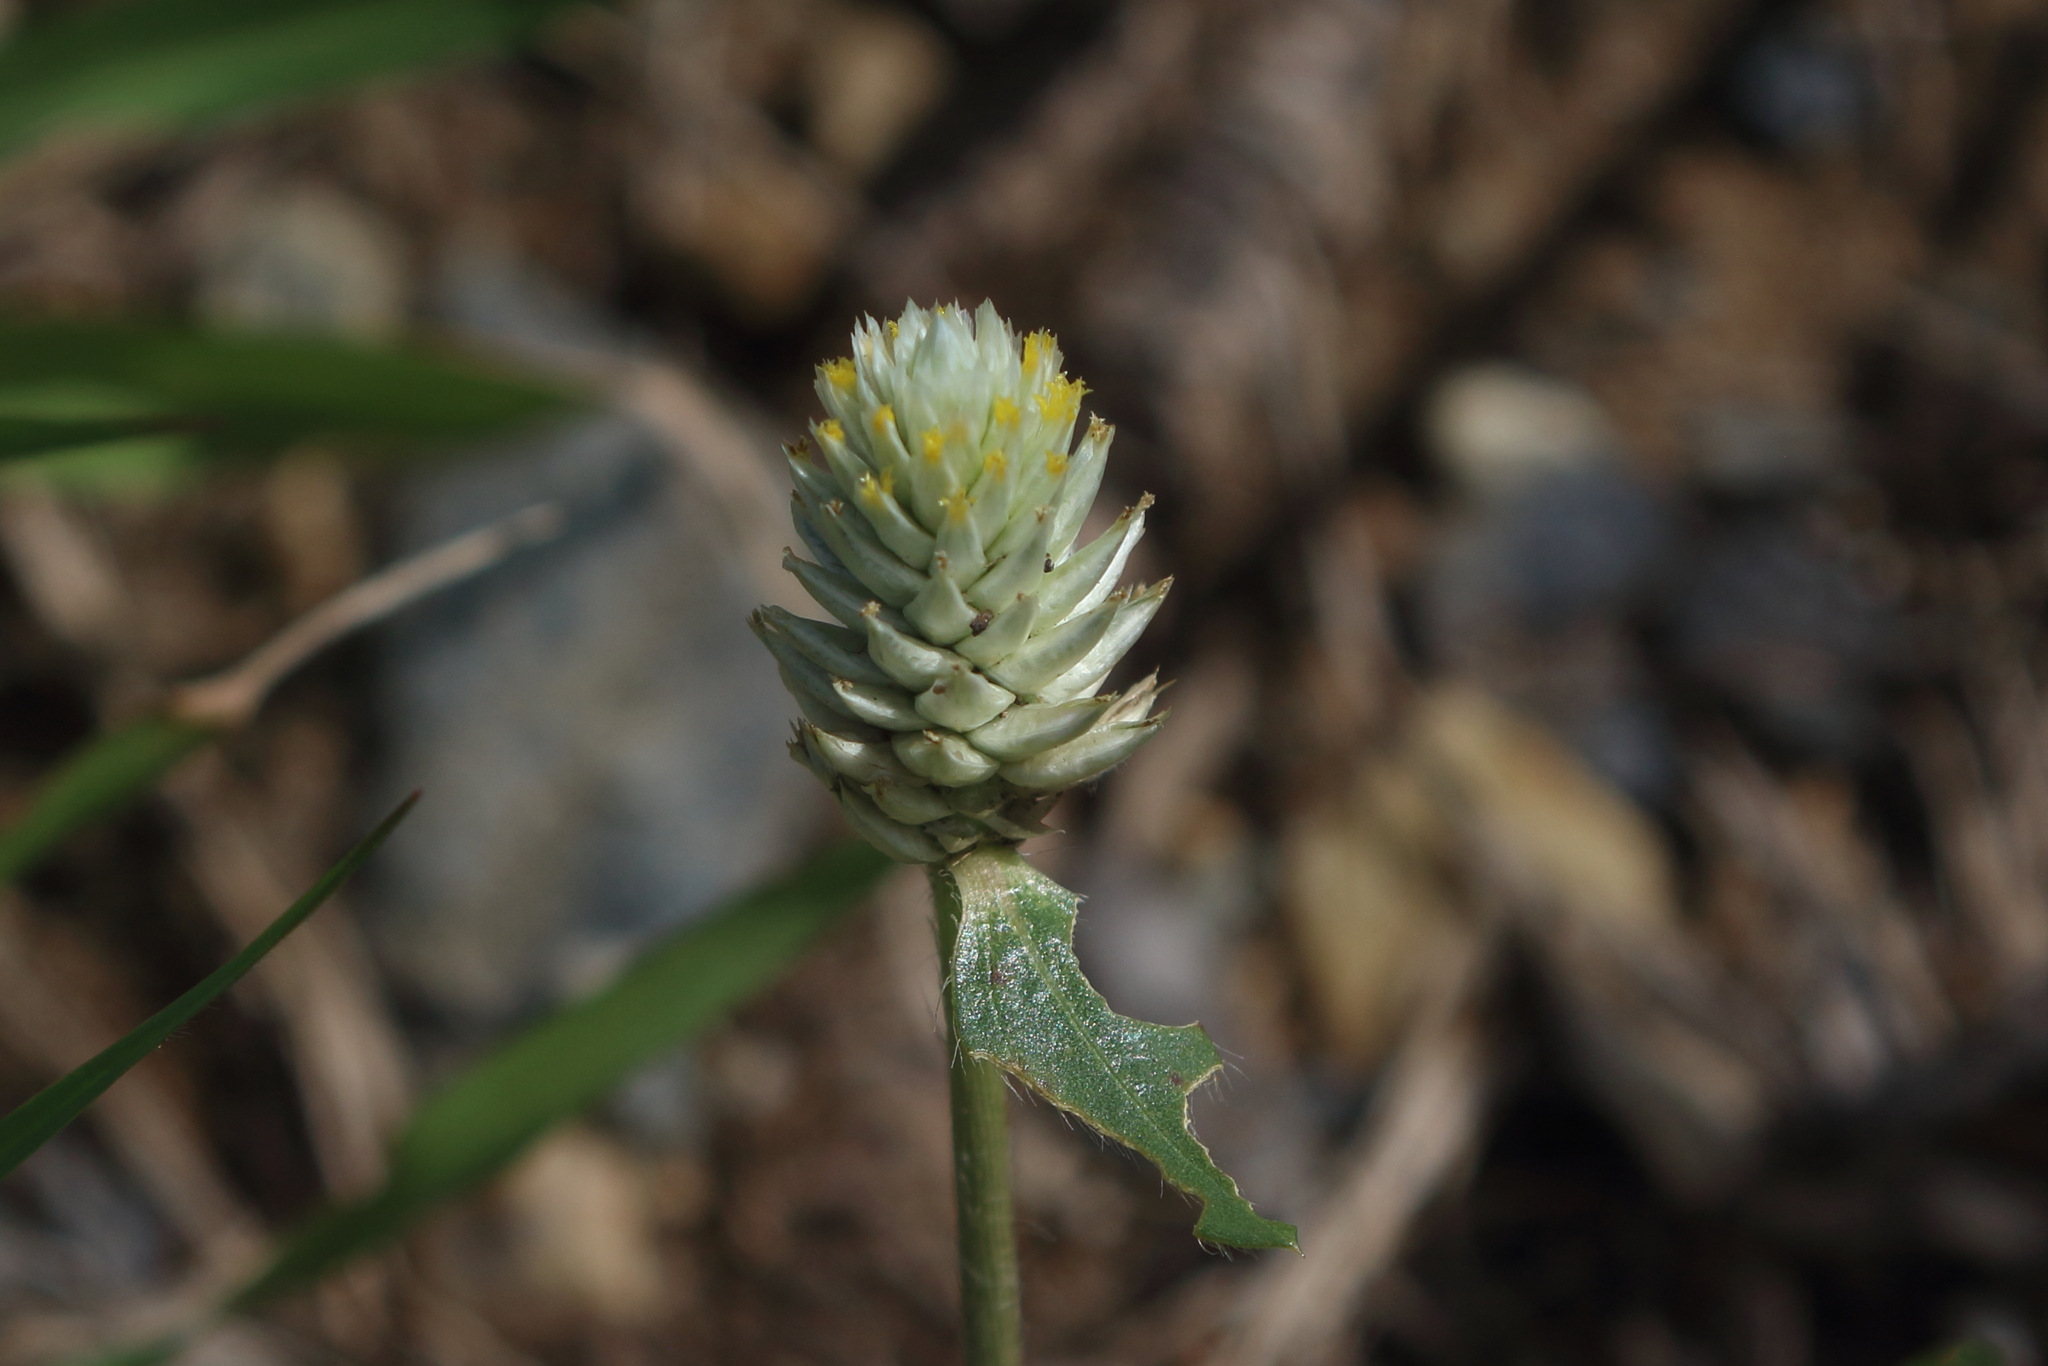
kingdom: Plantae
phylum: Tracheophyta
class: Magnoliopsida
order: Caryophyllales
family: Amaranthaceae
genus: Gomphrena
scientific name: Gomphrena celosioides
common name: Gomphrena-weed
